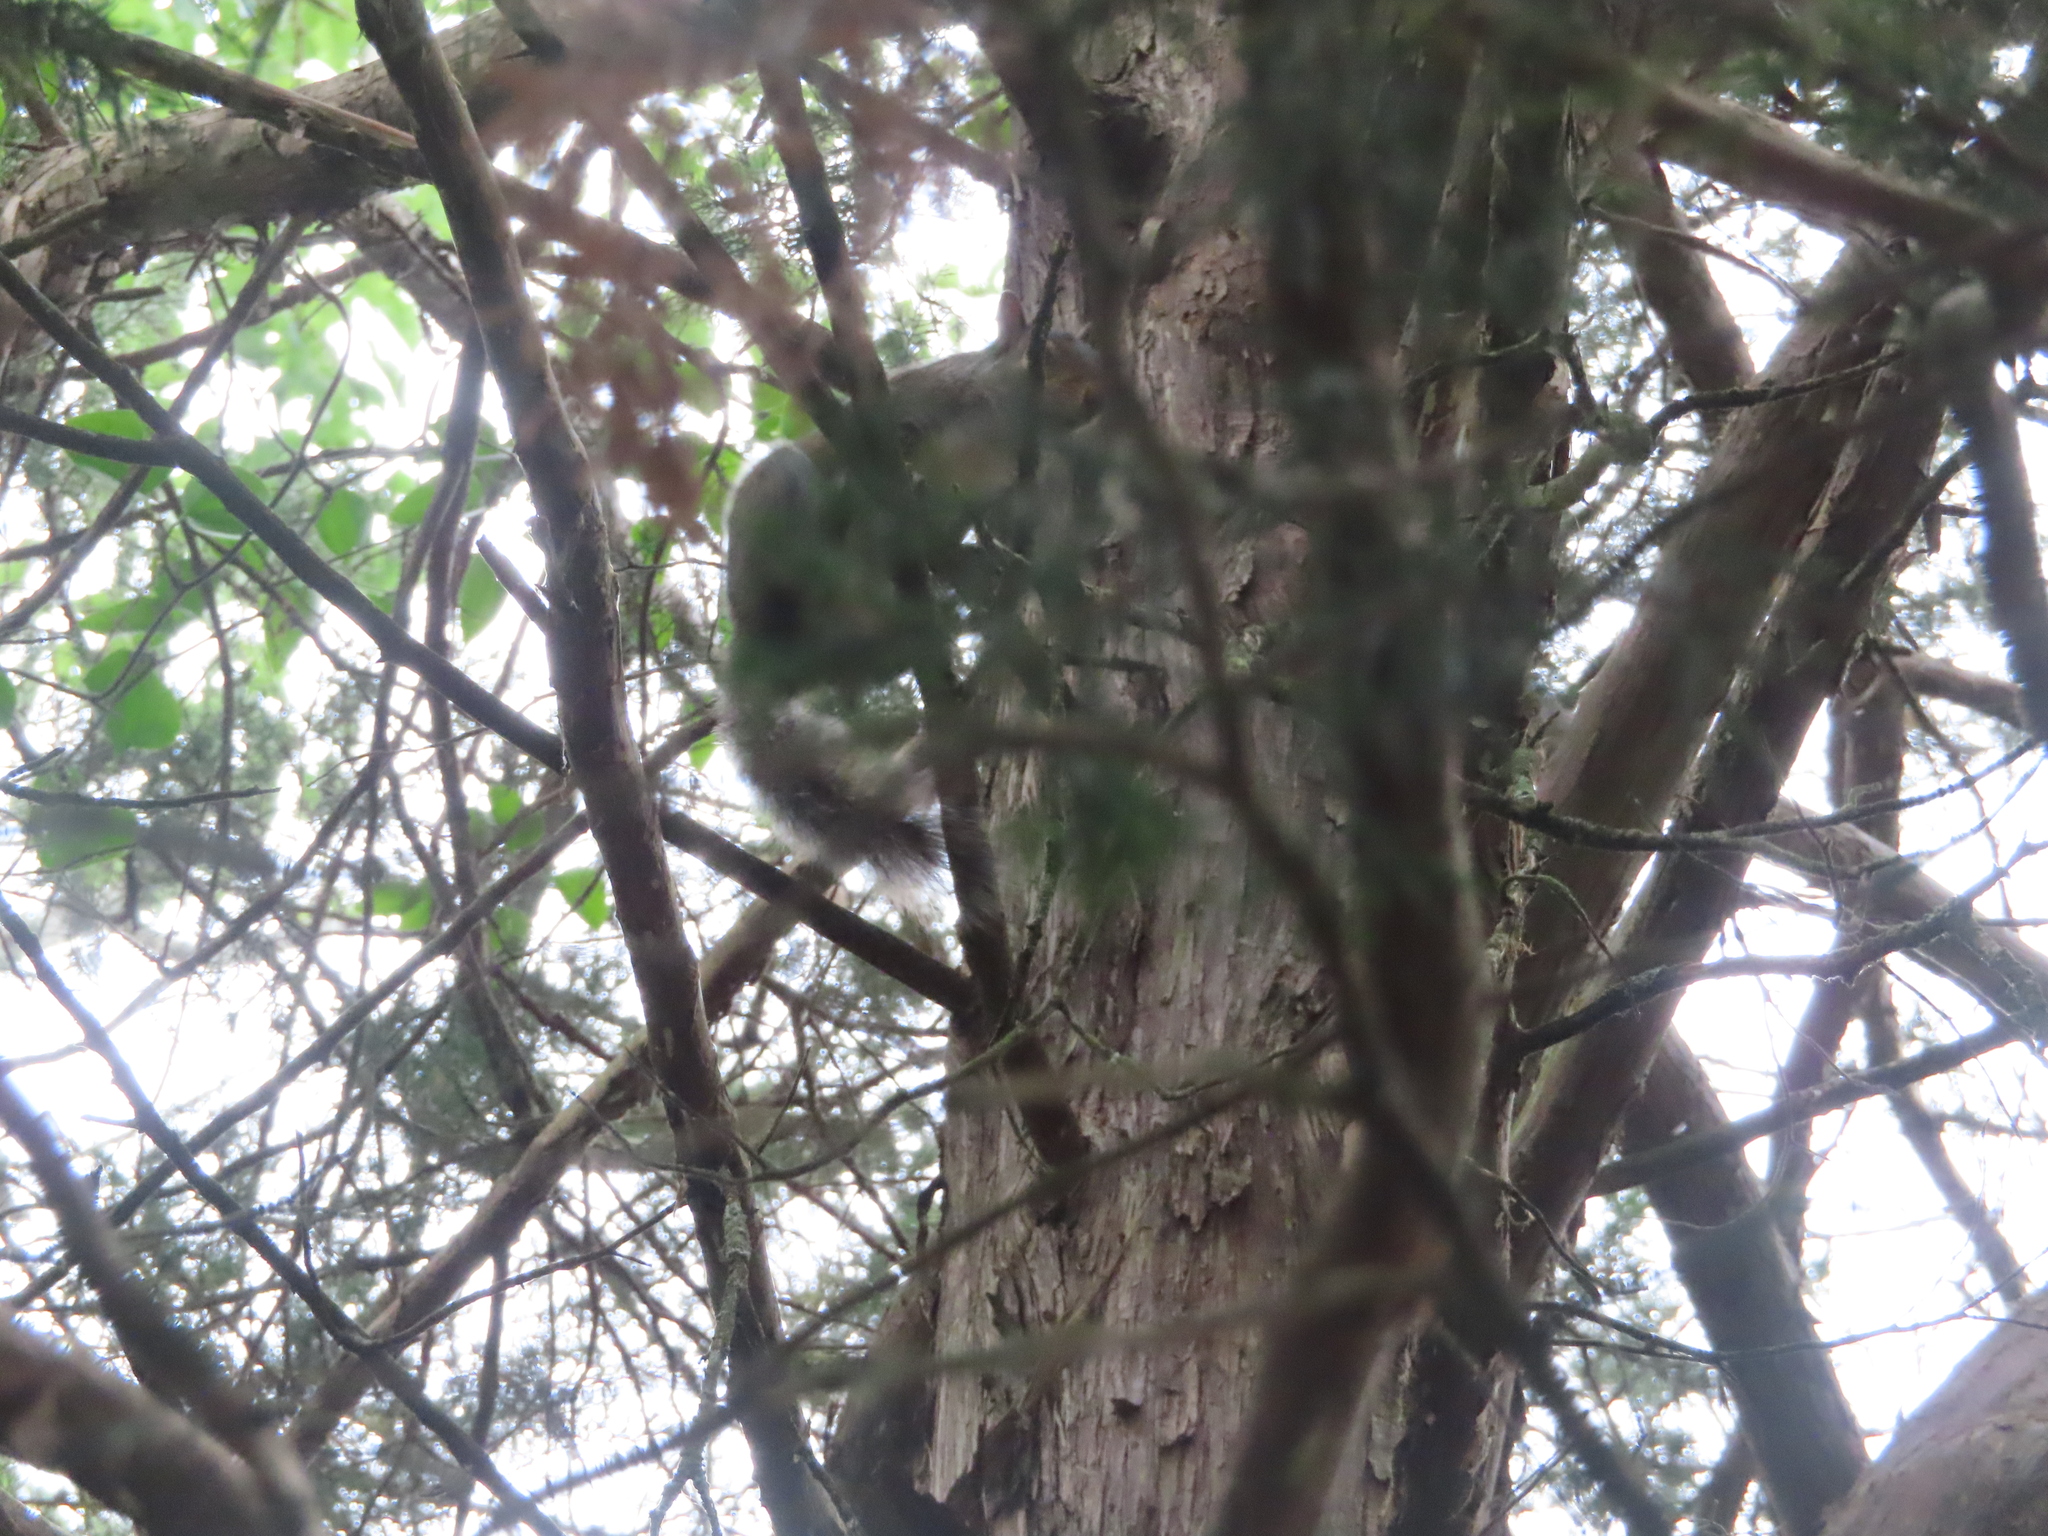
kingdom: Animalia
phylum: Chordata
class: Mammalia
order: Rodentia
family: Sciuridae
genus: Sciurus
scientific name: Sciurus carolinensis
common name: Eastern gray squirrel
